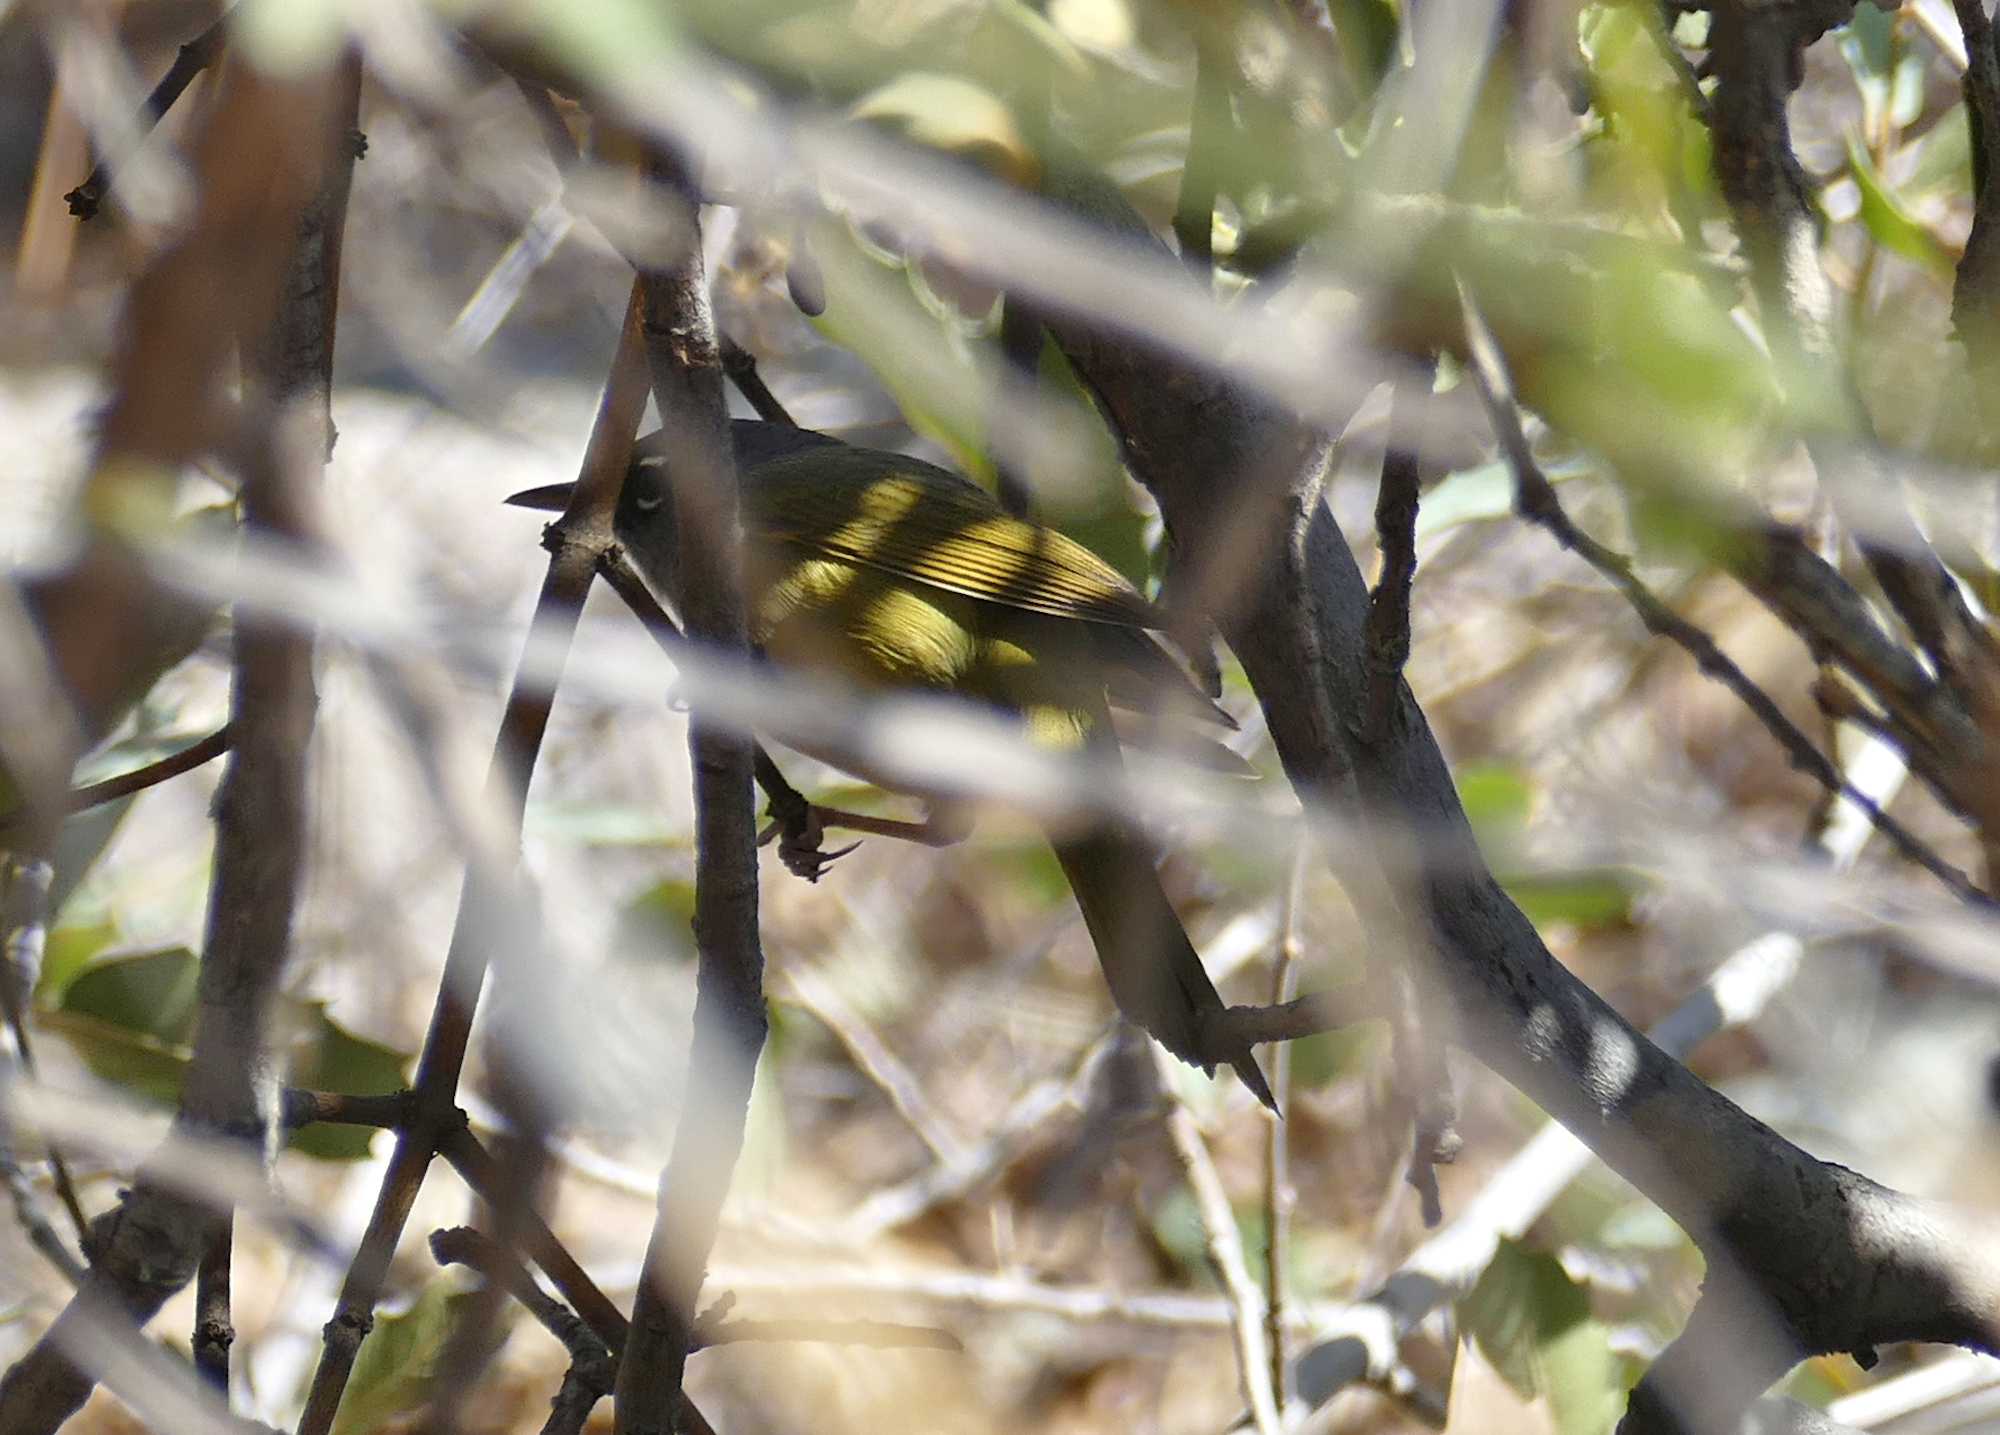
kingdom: Animalia
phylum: Chordata
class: Aves
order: Passeriformes
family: Parulidae
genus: Geothlypis
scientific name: Geothlypis tolmiei
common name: Macgillivray's warbler
